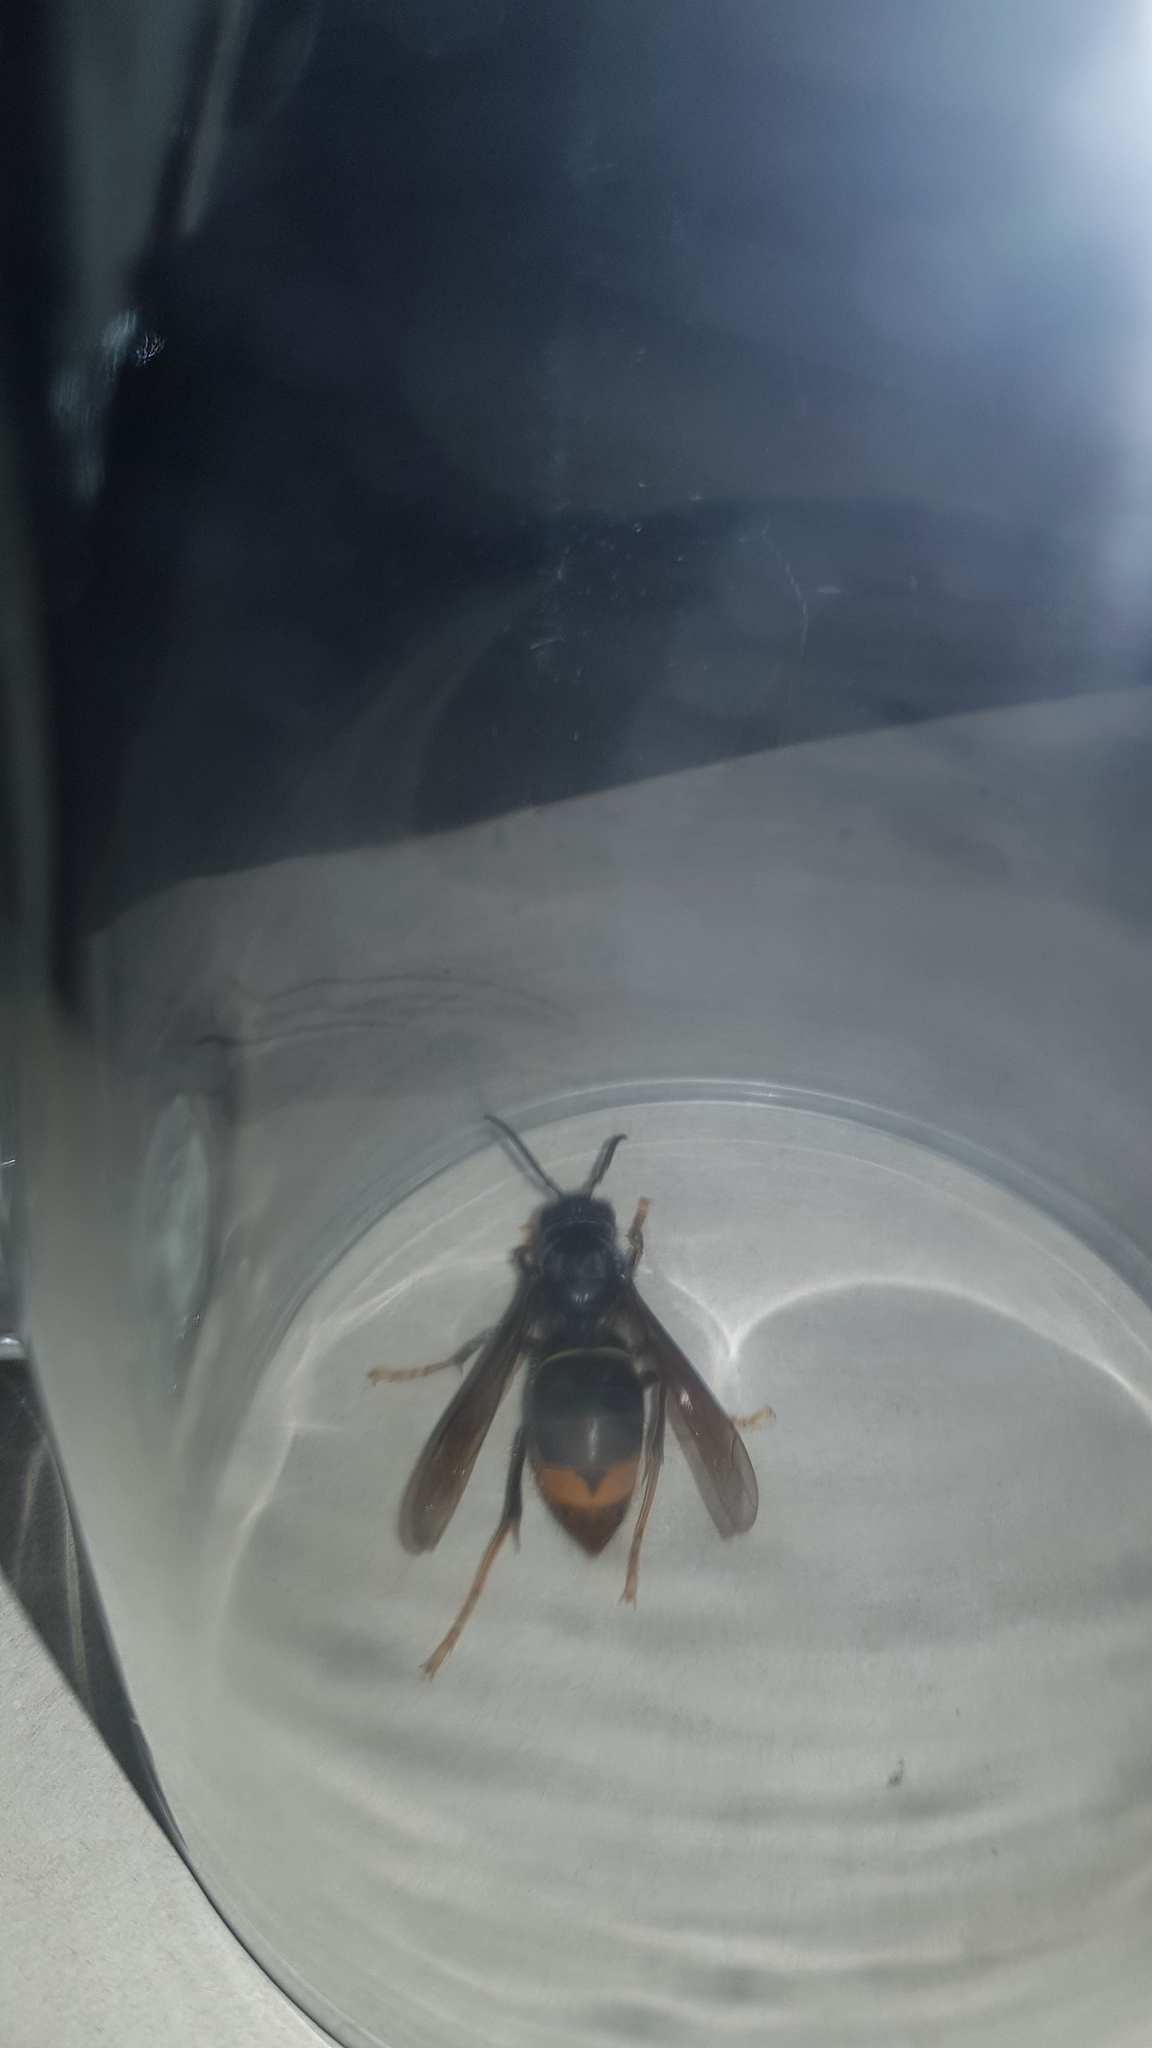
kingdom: Animalia
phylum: Arthropoda
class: Insecta
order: Hymenoptera
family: Vespidae
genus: Vespa
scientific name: Vespa velutina
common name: Asian hornet
